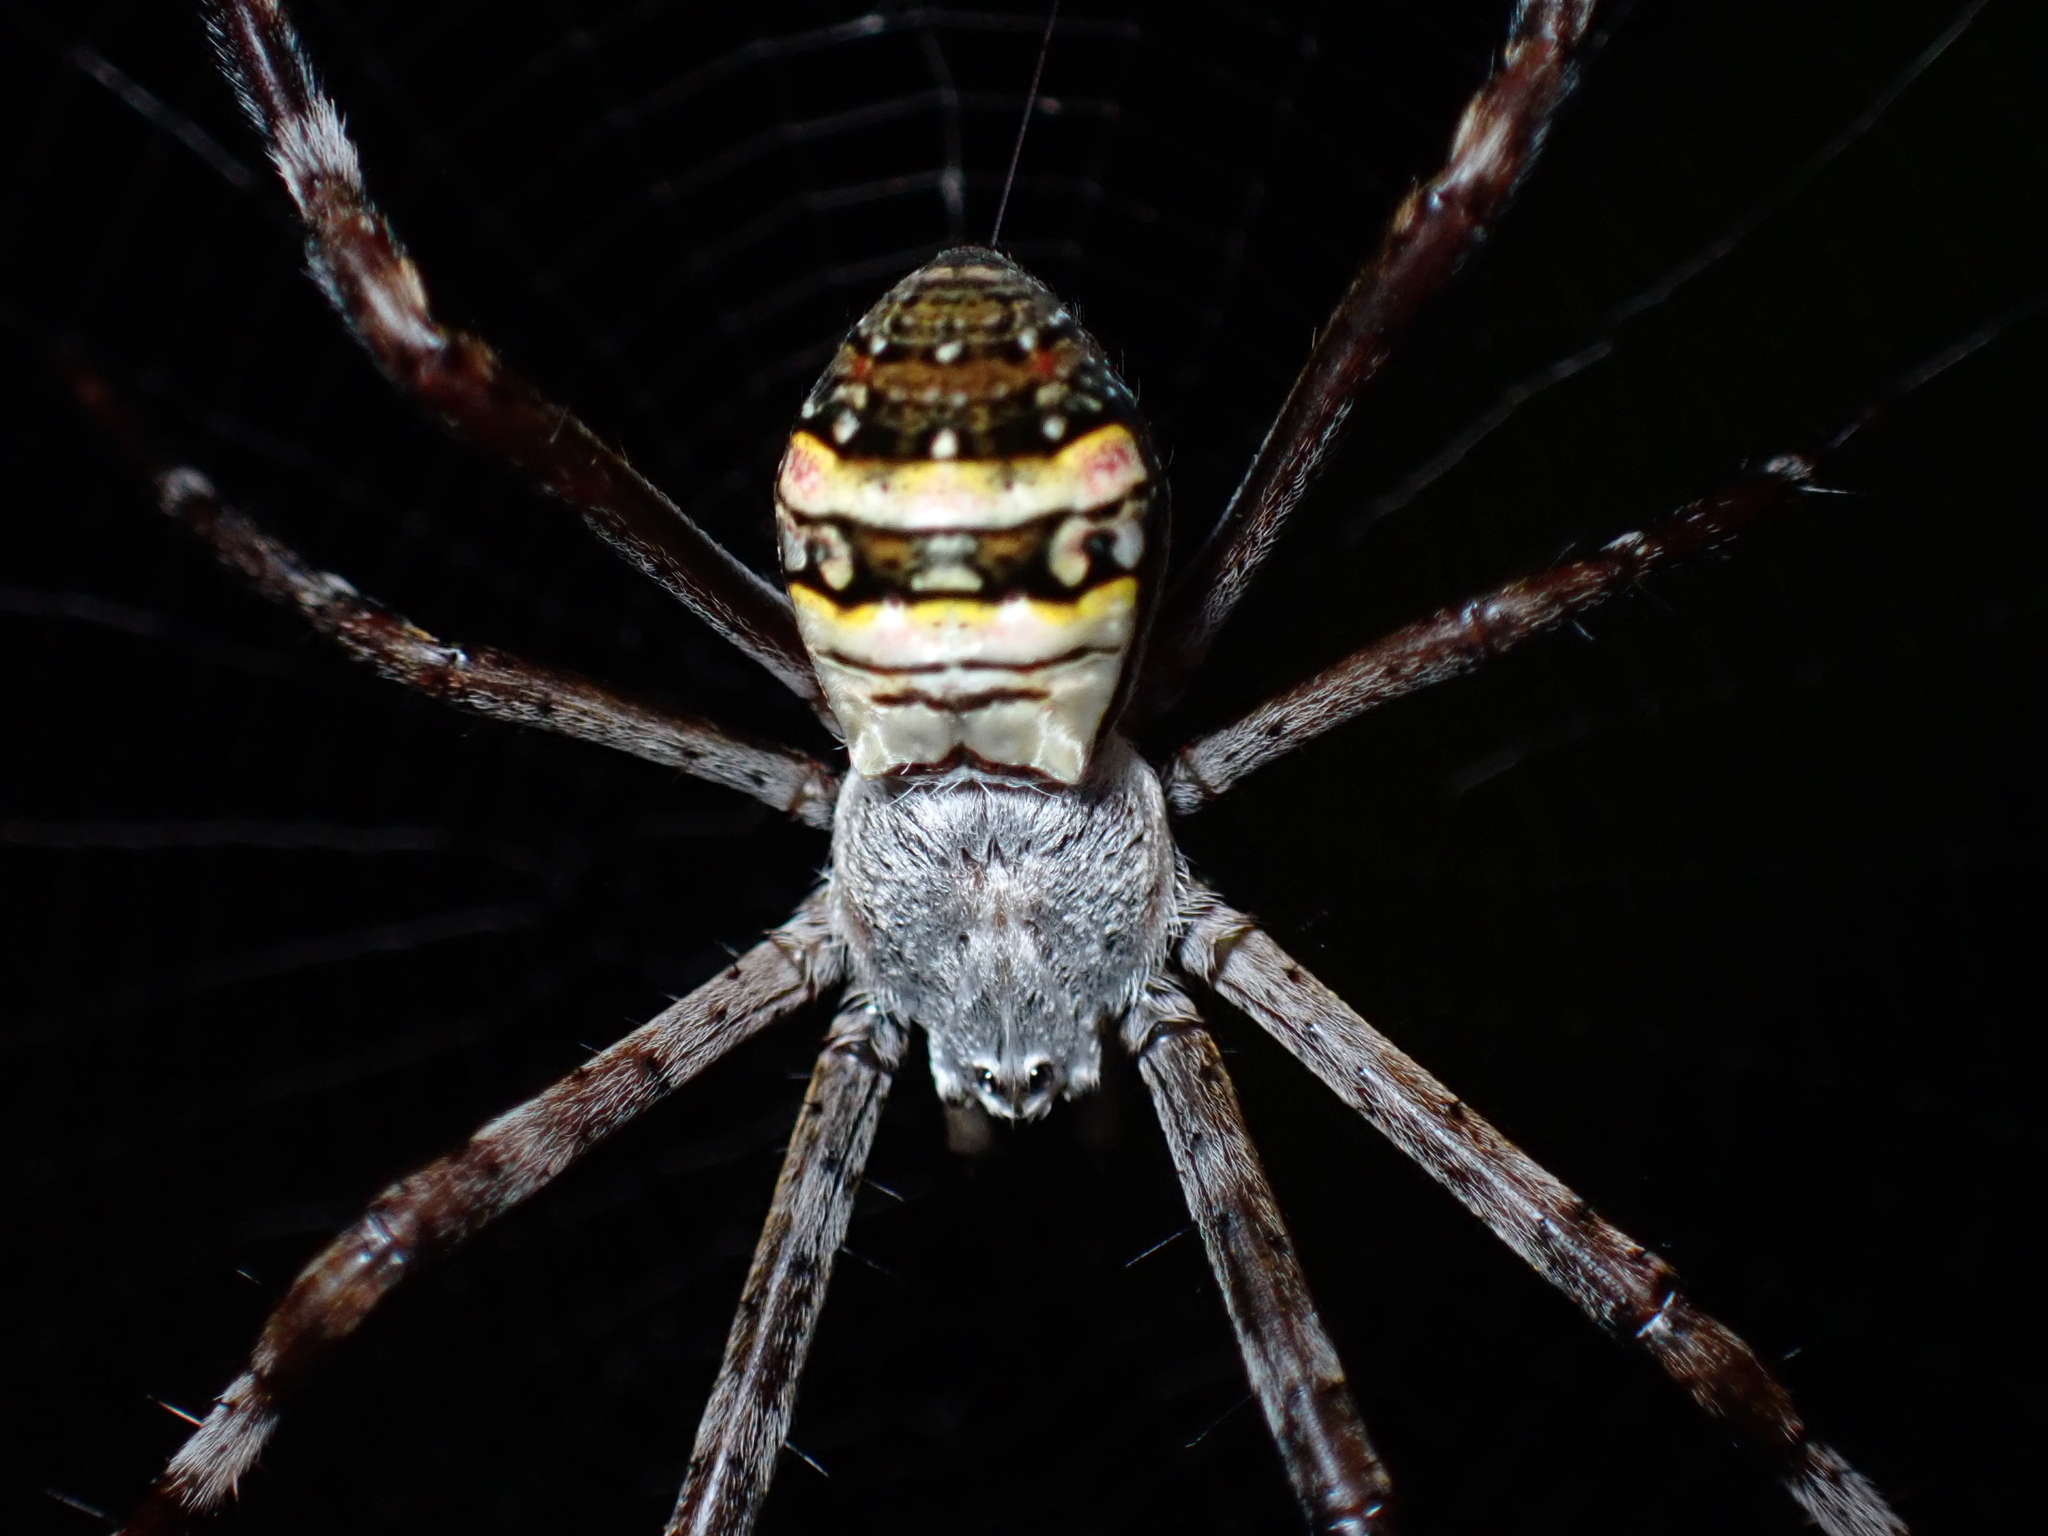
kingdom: Animalia
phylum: Arthropoda
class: Arachnida
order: Araneae
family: Araneidae
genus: Argiope
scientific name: Argiope caledonia
